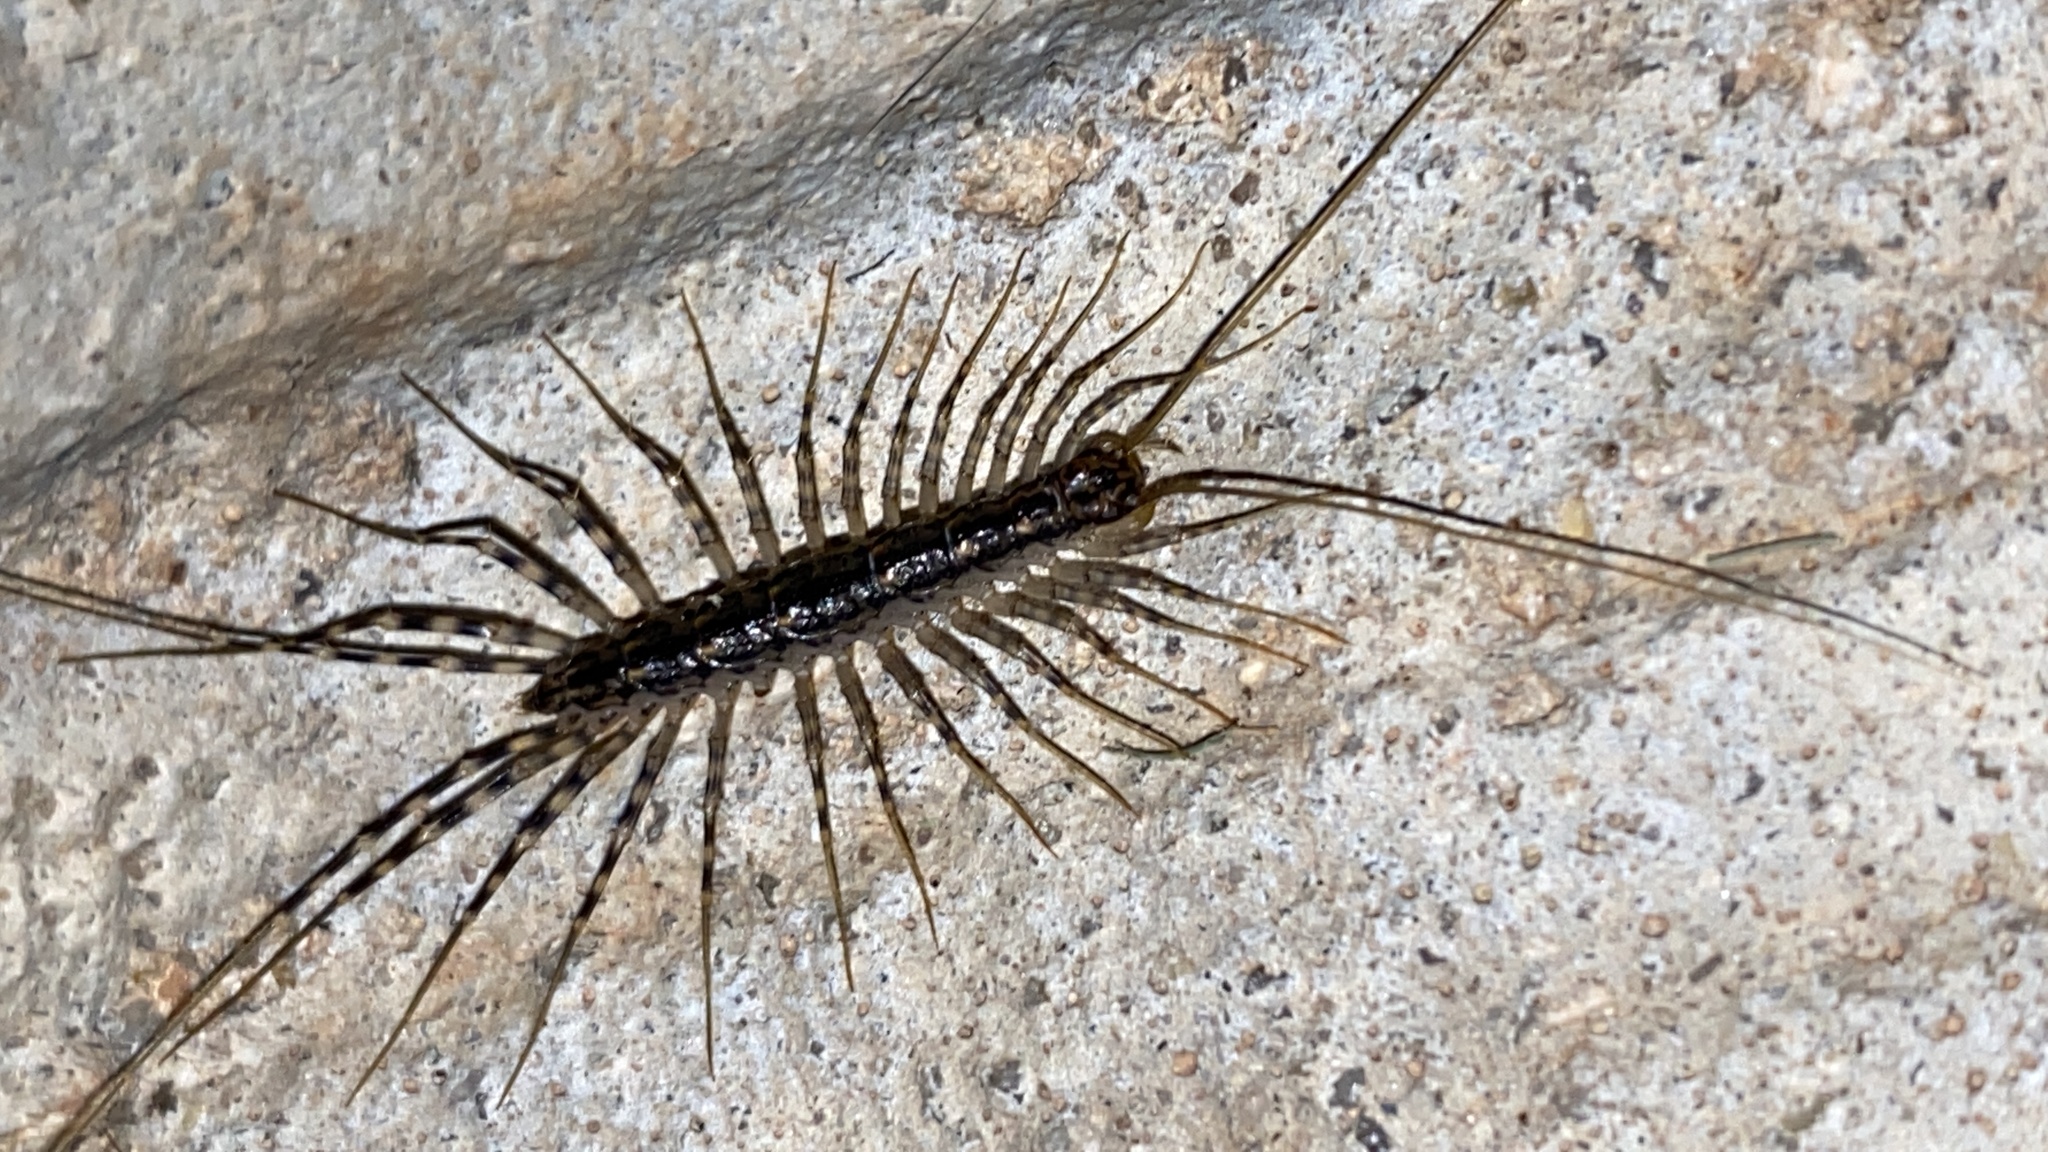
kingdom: Animalia
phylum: Arthropoda
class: Chilopoda
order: Scutigeromorpha
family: Scutigeridae
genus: Scutigera
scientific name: Scutigera coleoptrata
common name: House centipede
